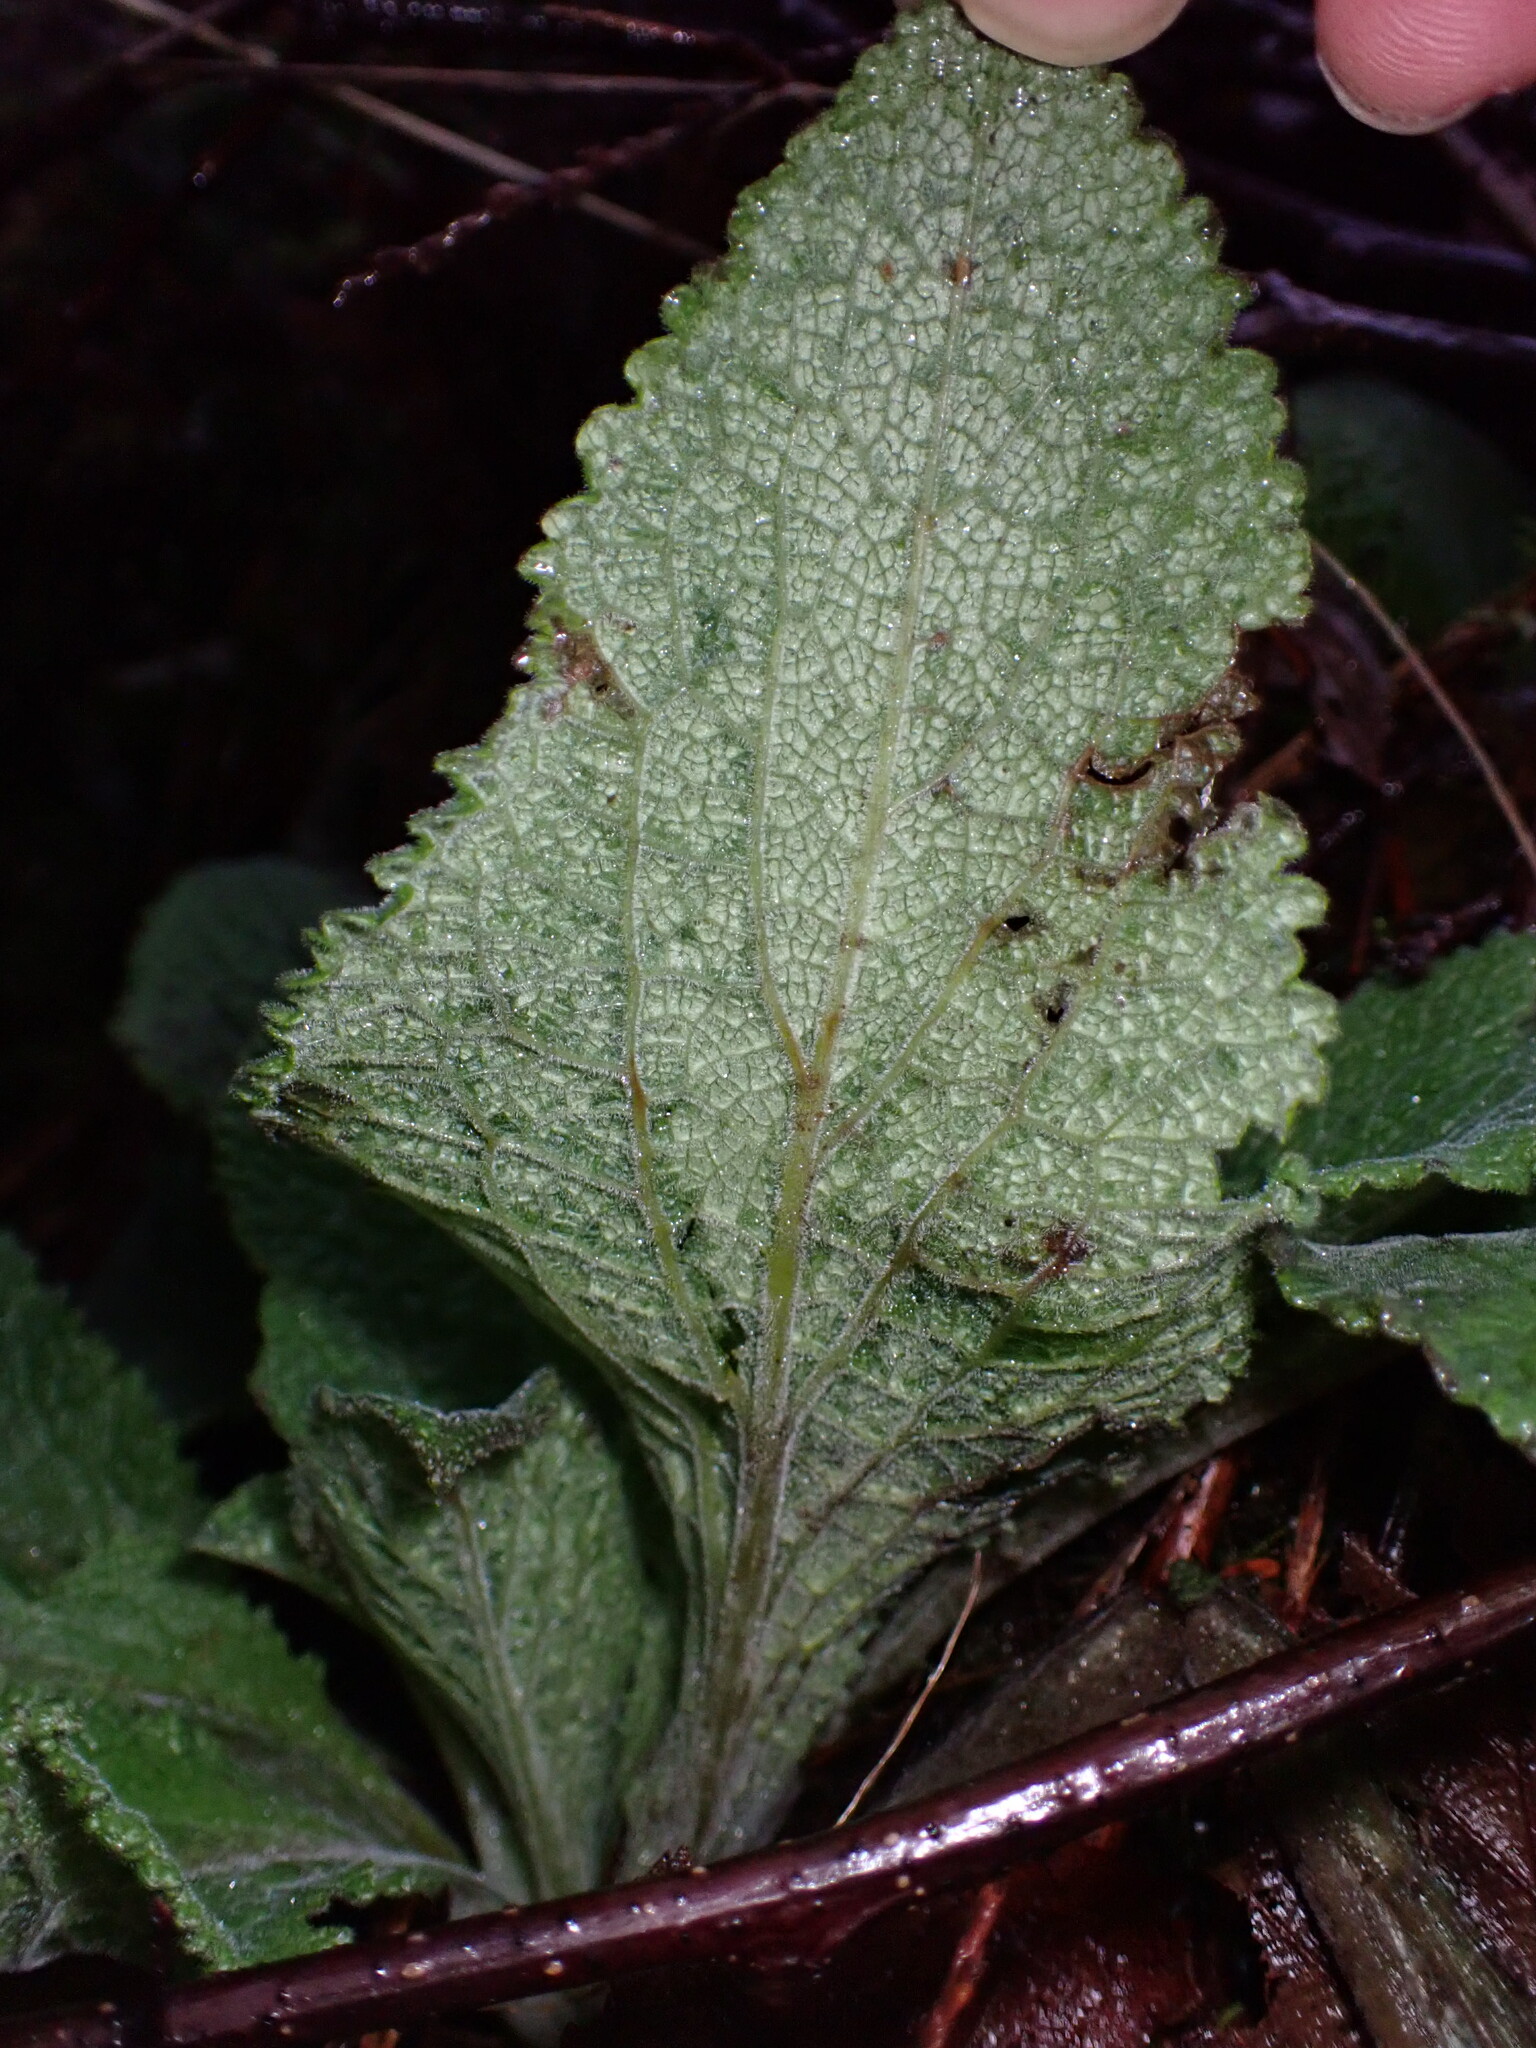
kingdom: Plantae
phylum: Tracheophyta
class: Magnoliopsida
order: Lamiales
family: Plantaginaceae
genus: Digitalis
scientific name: Digitalis purpurea
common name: Foxglove
